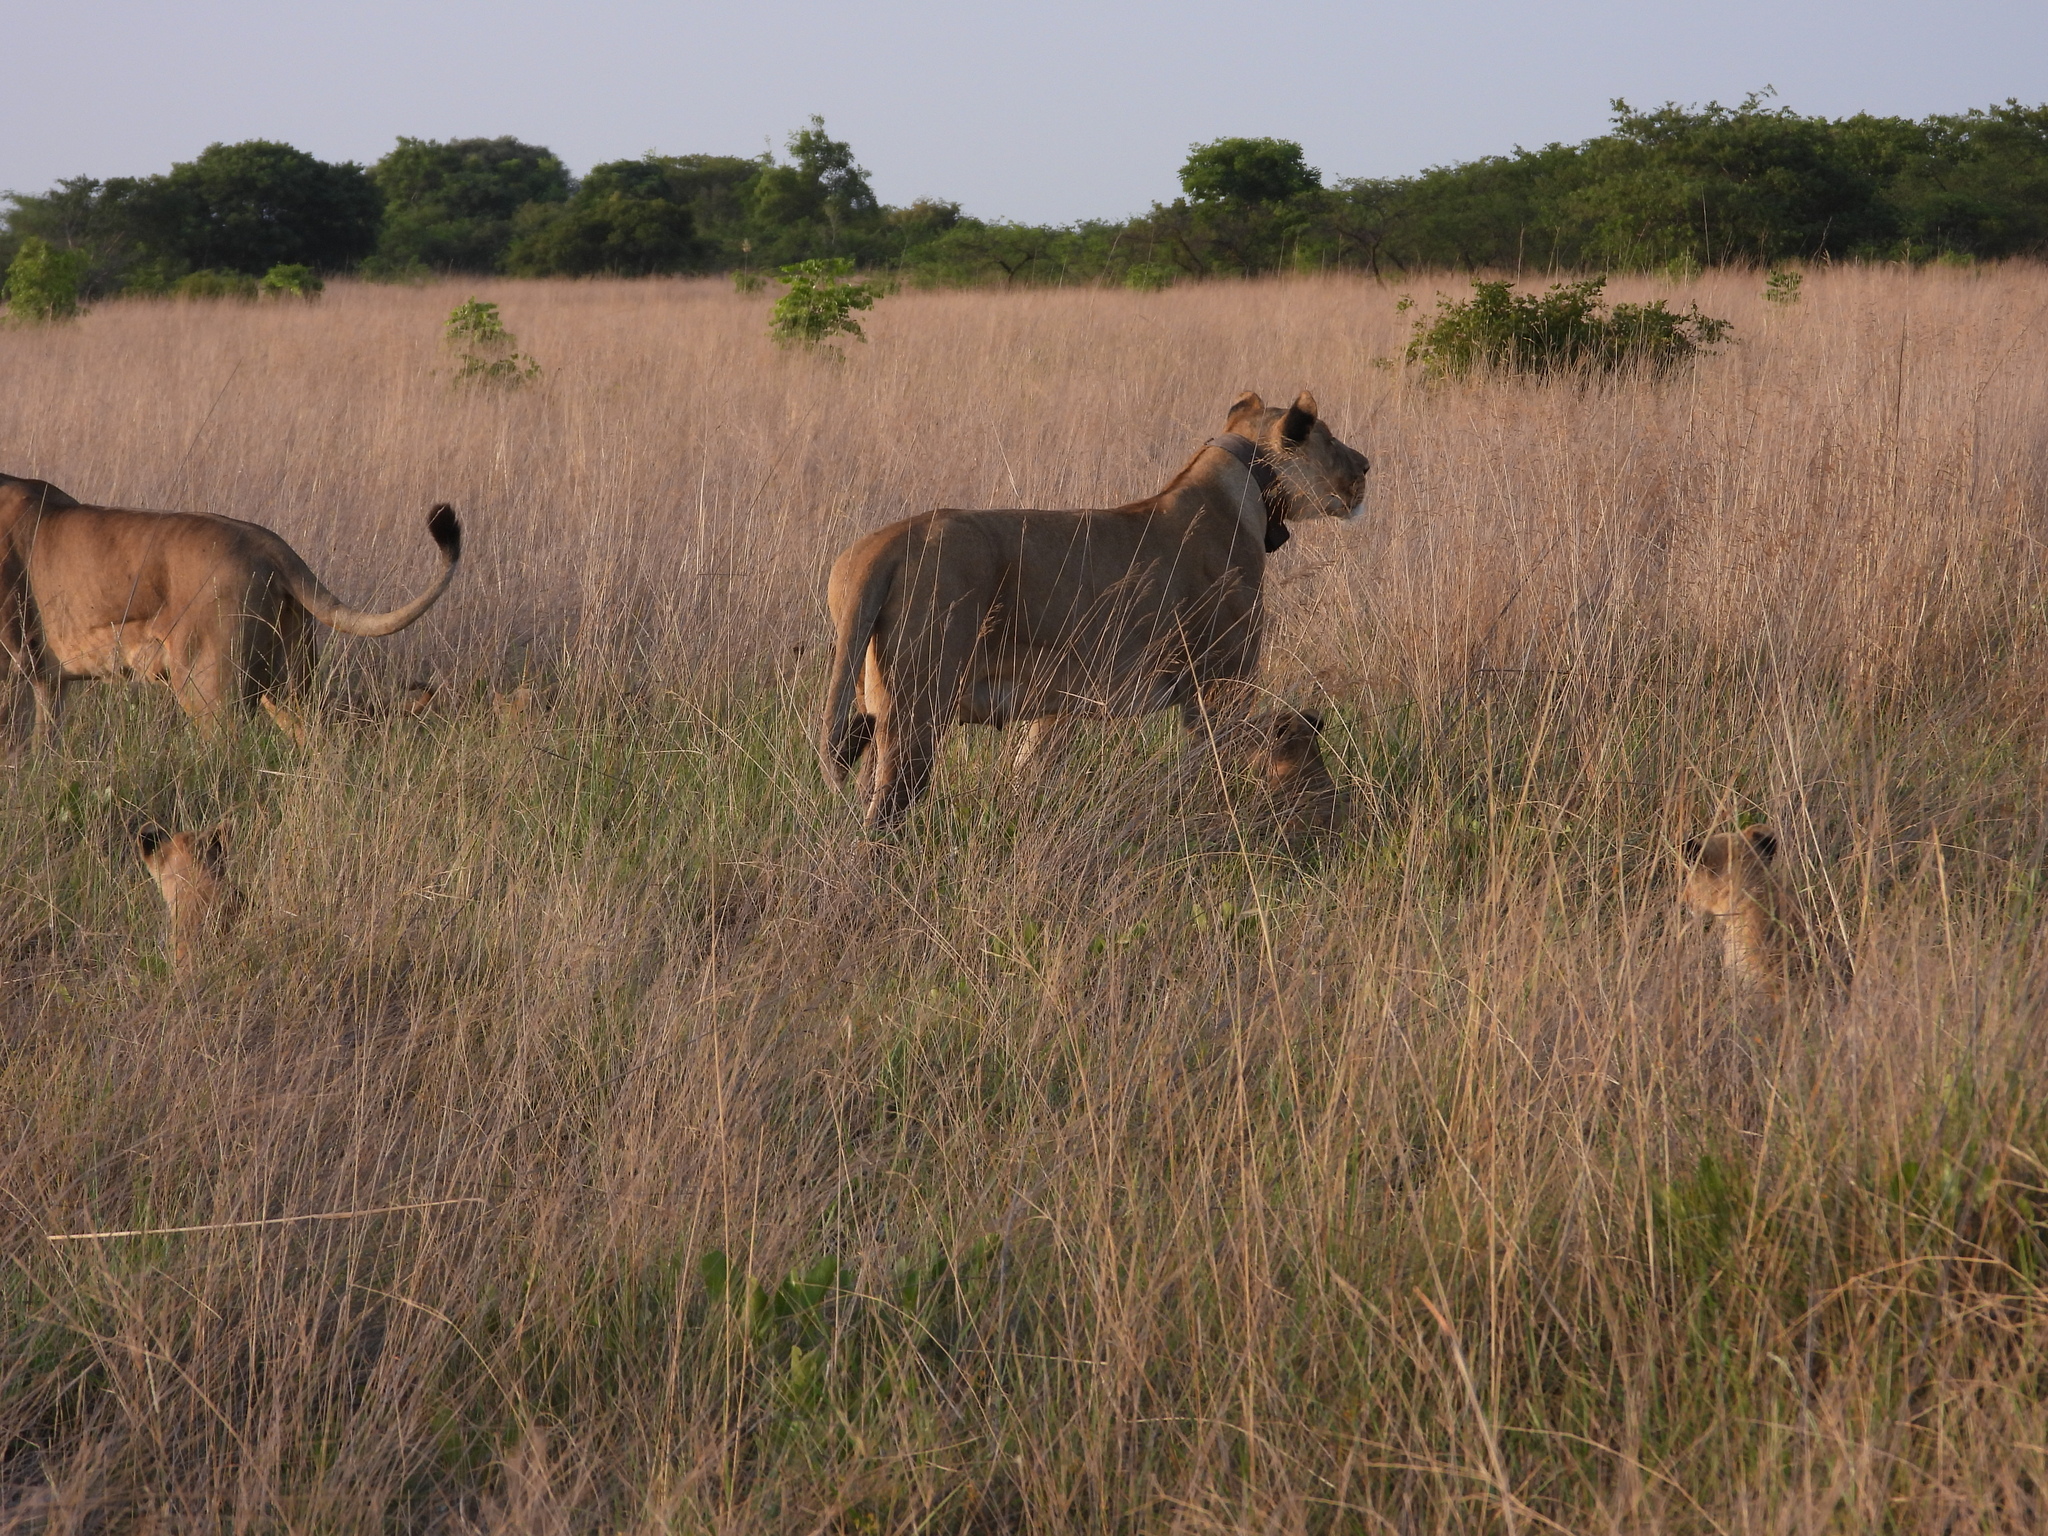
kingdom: Animalia
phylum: Chordata
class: Mammalia
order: Carnivora
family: Felidae
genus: Panthera
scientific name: Panthera leo
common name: Lion
